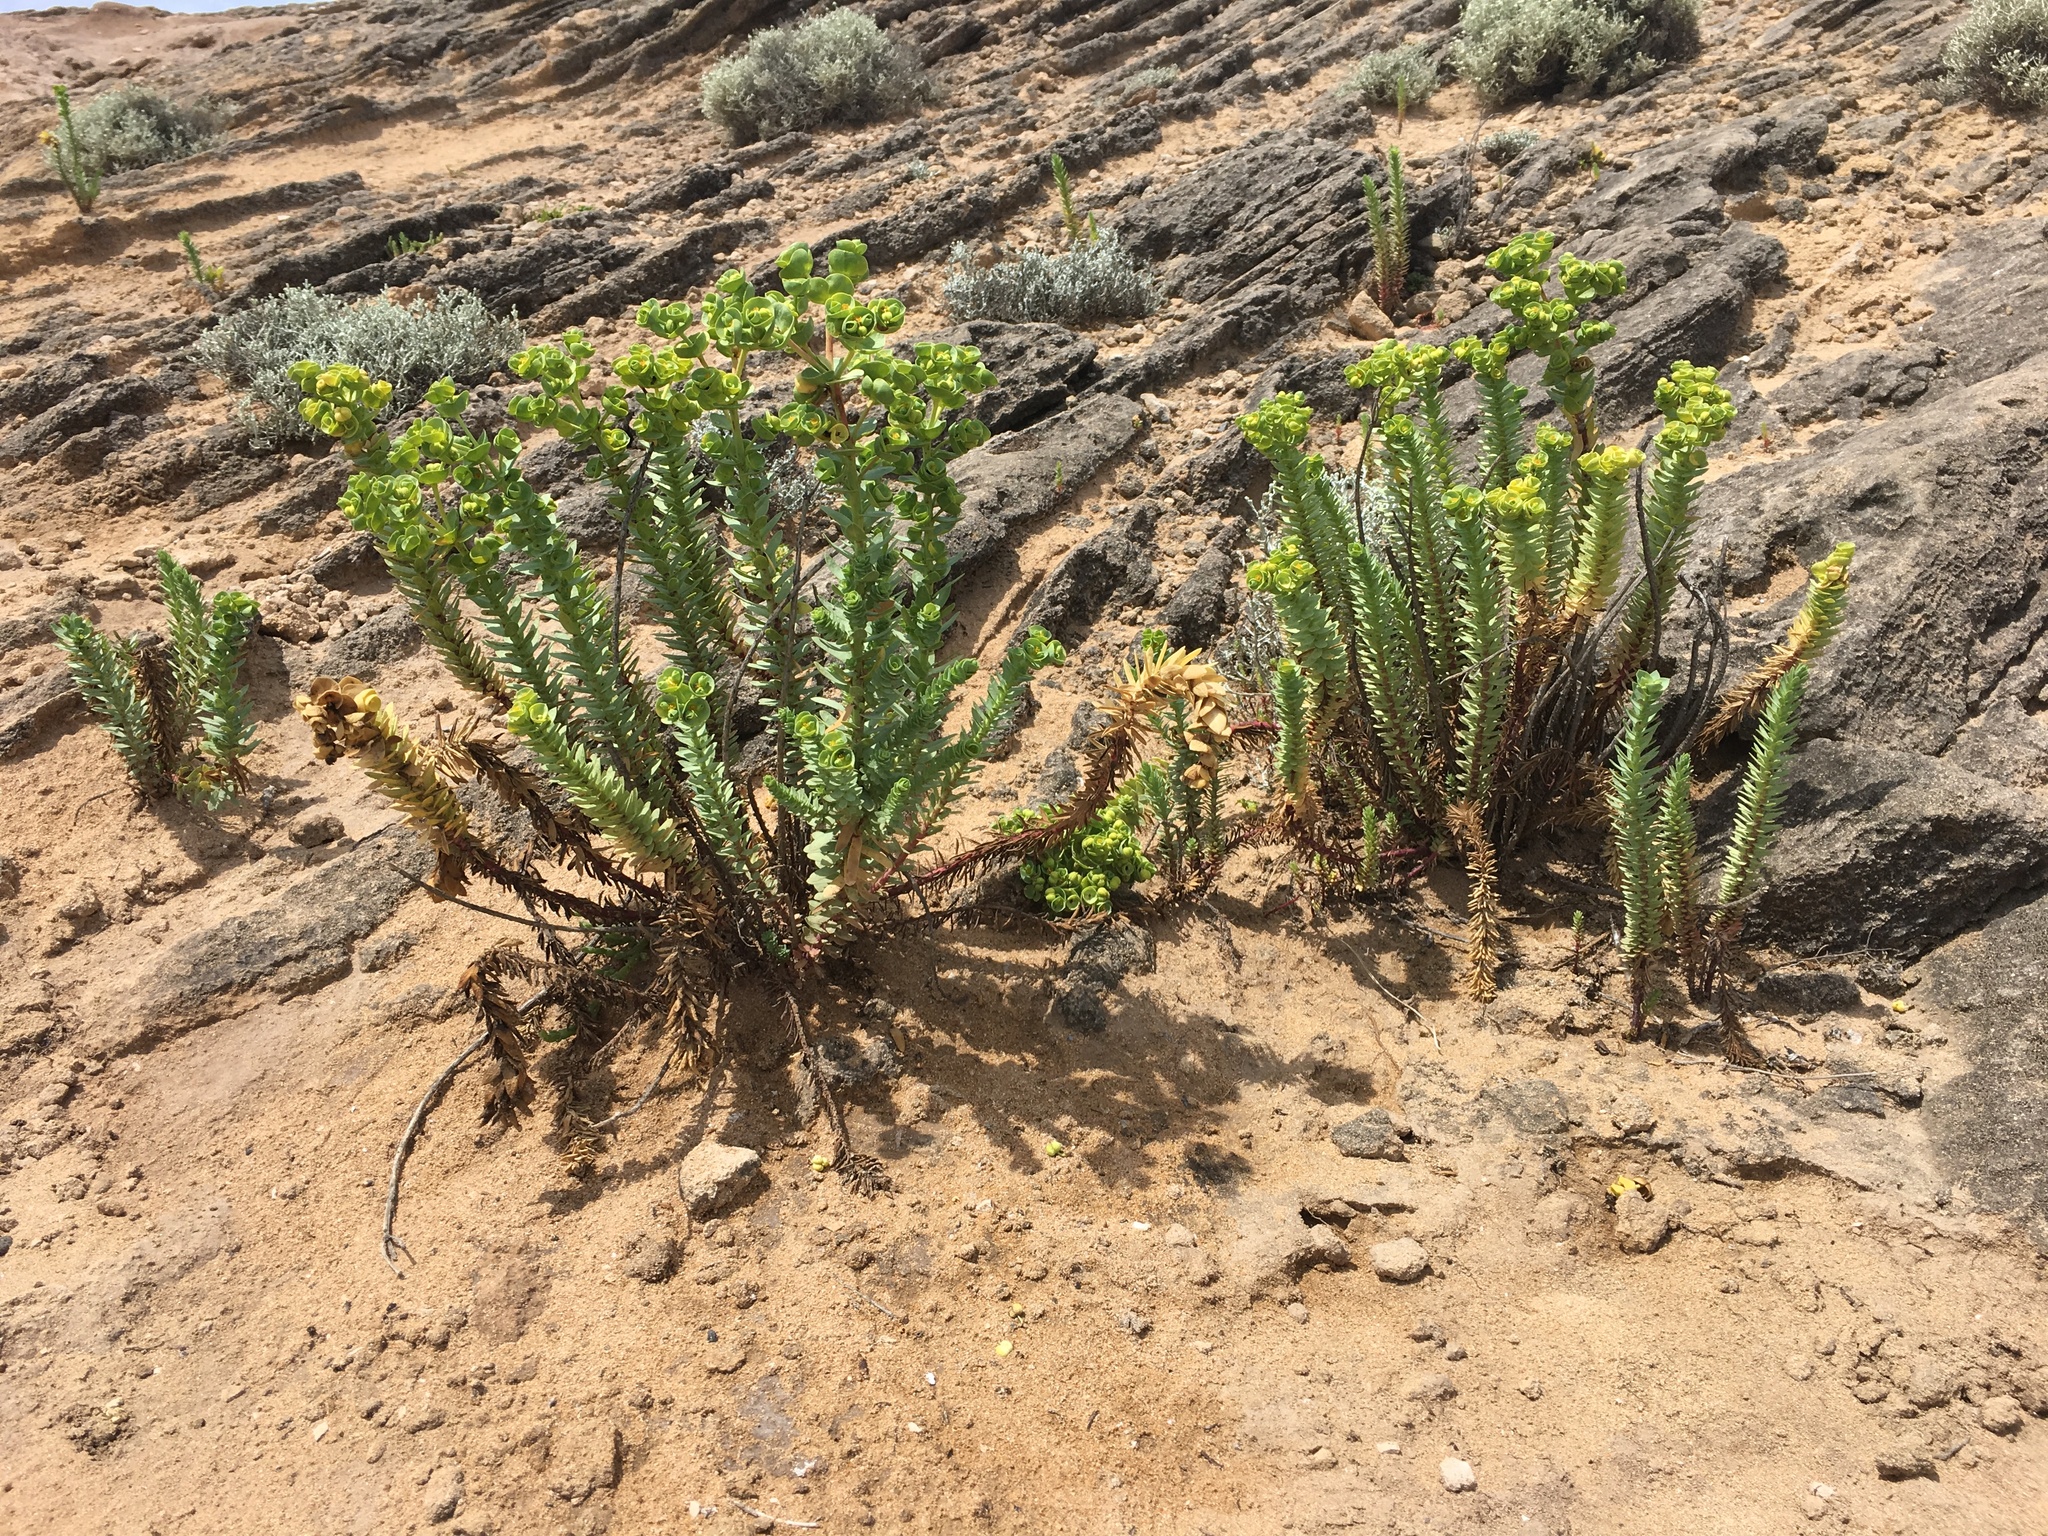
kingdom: Plantae
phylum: Tracheophyta
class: Magnoliopsida
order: Malpighiales
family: Euphorbiaceae
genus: Euphorbia
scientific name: Euphorbia paralias
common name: Sea spurge
